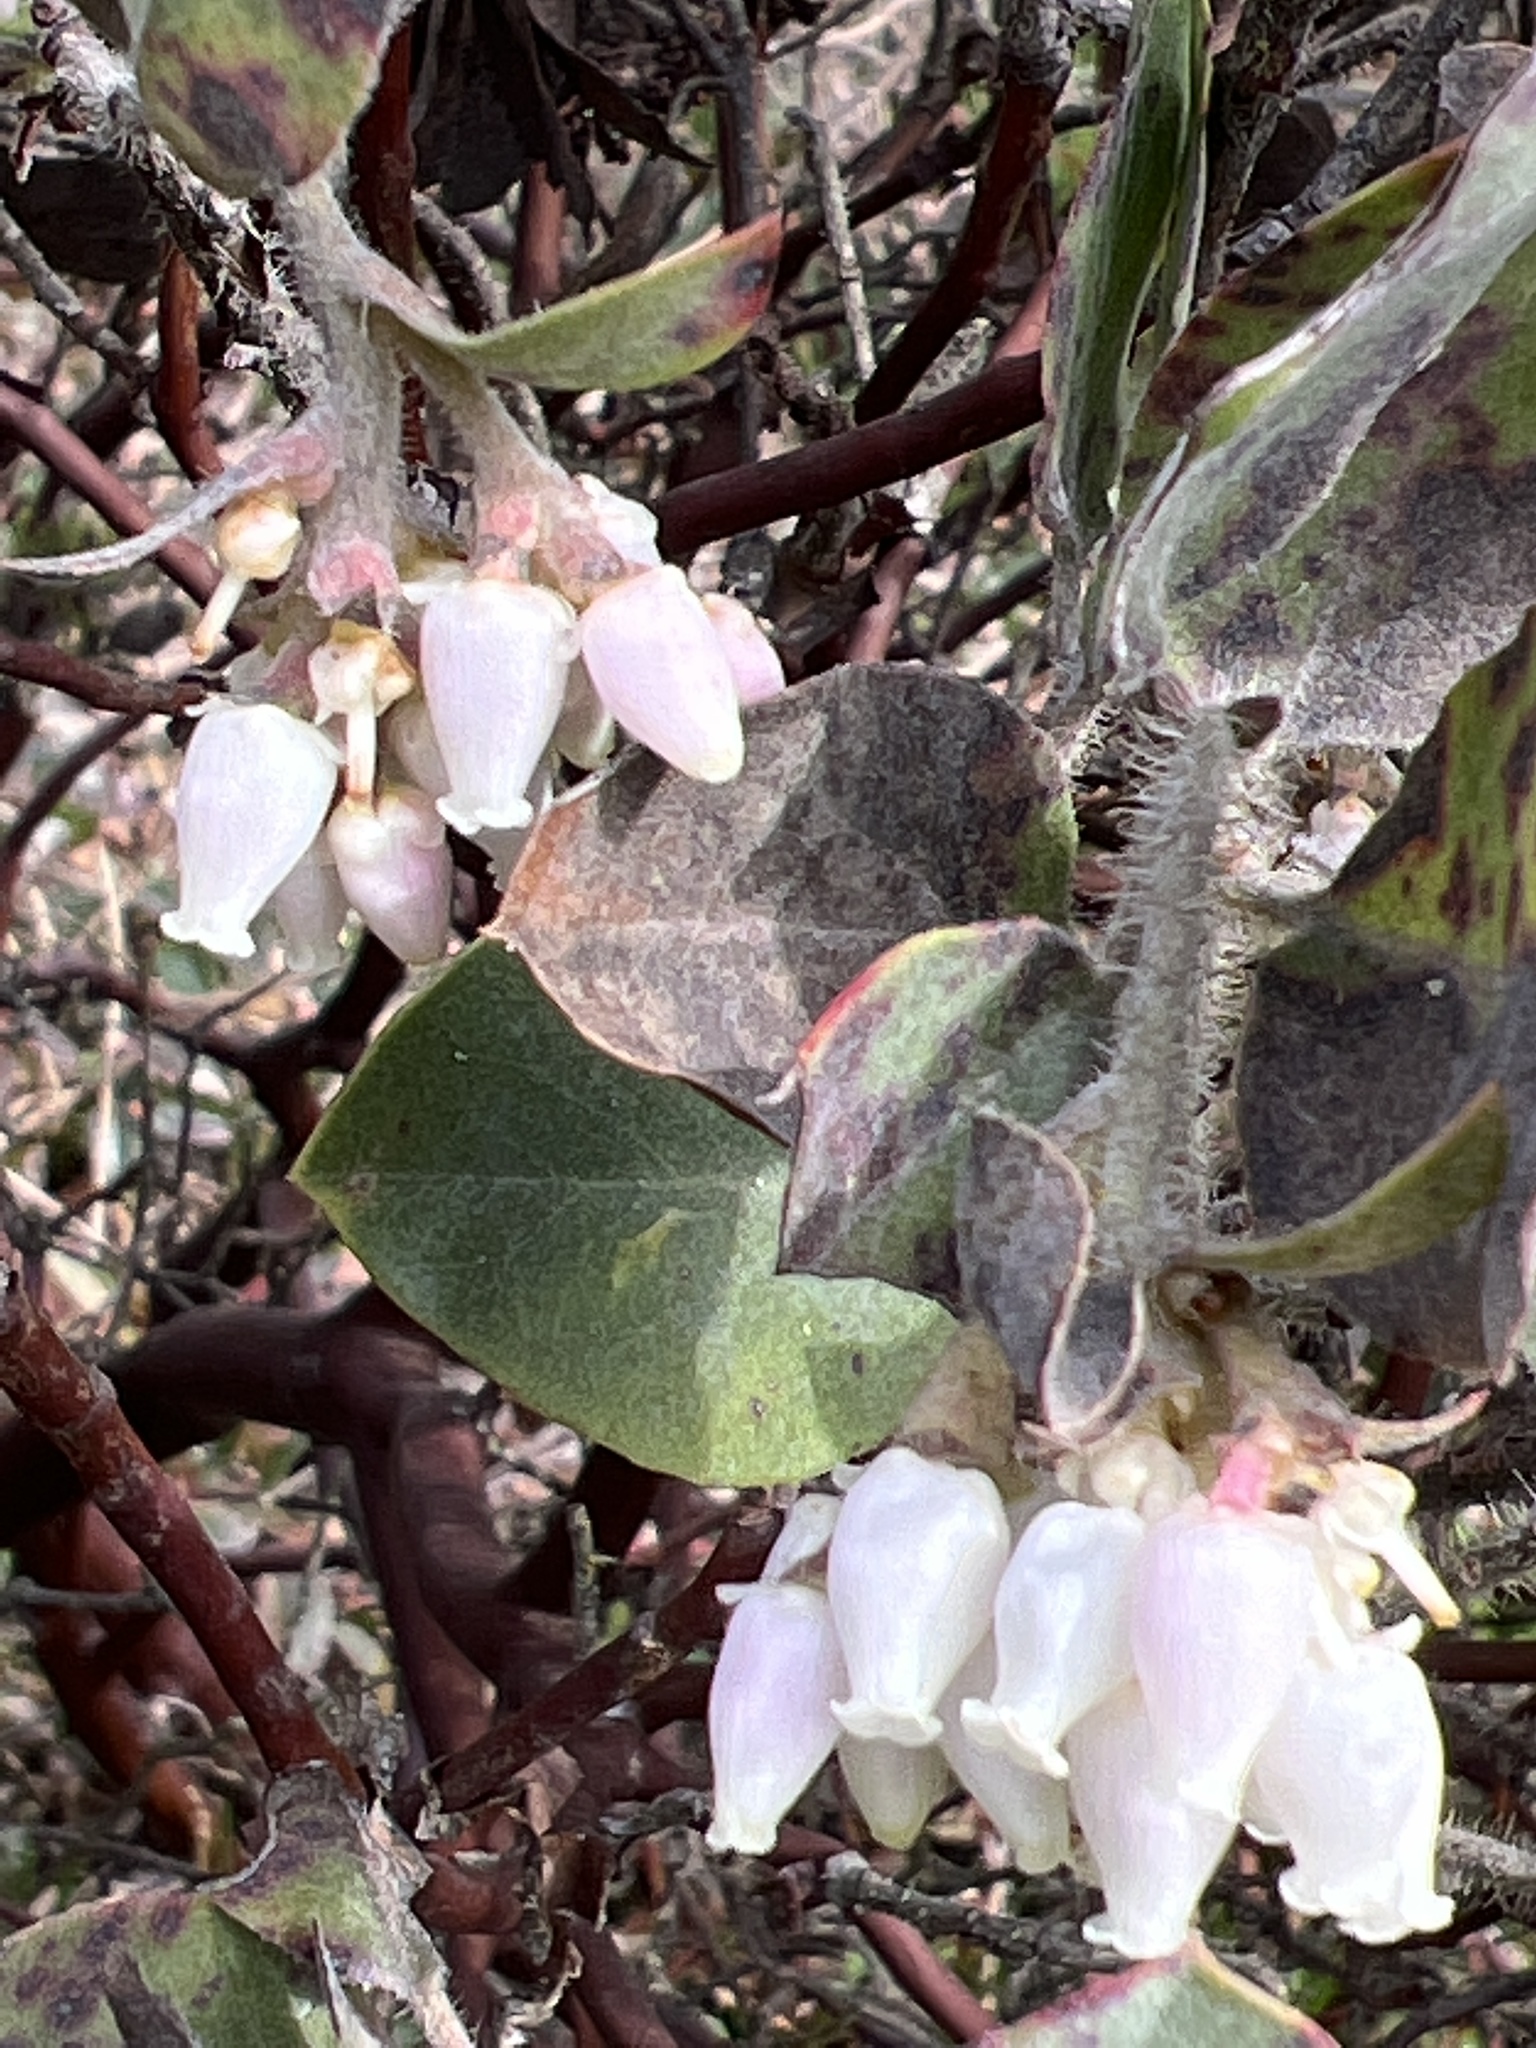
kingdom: Plantae
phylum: Tracheophyta
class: Magnoliopsida
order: Ericales
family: Ericaceae
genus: Arctostaphylos
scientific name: Arctostaphylos columbiana
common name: Bristly bearberry
